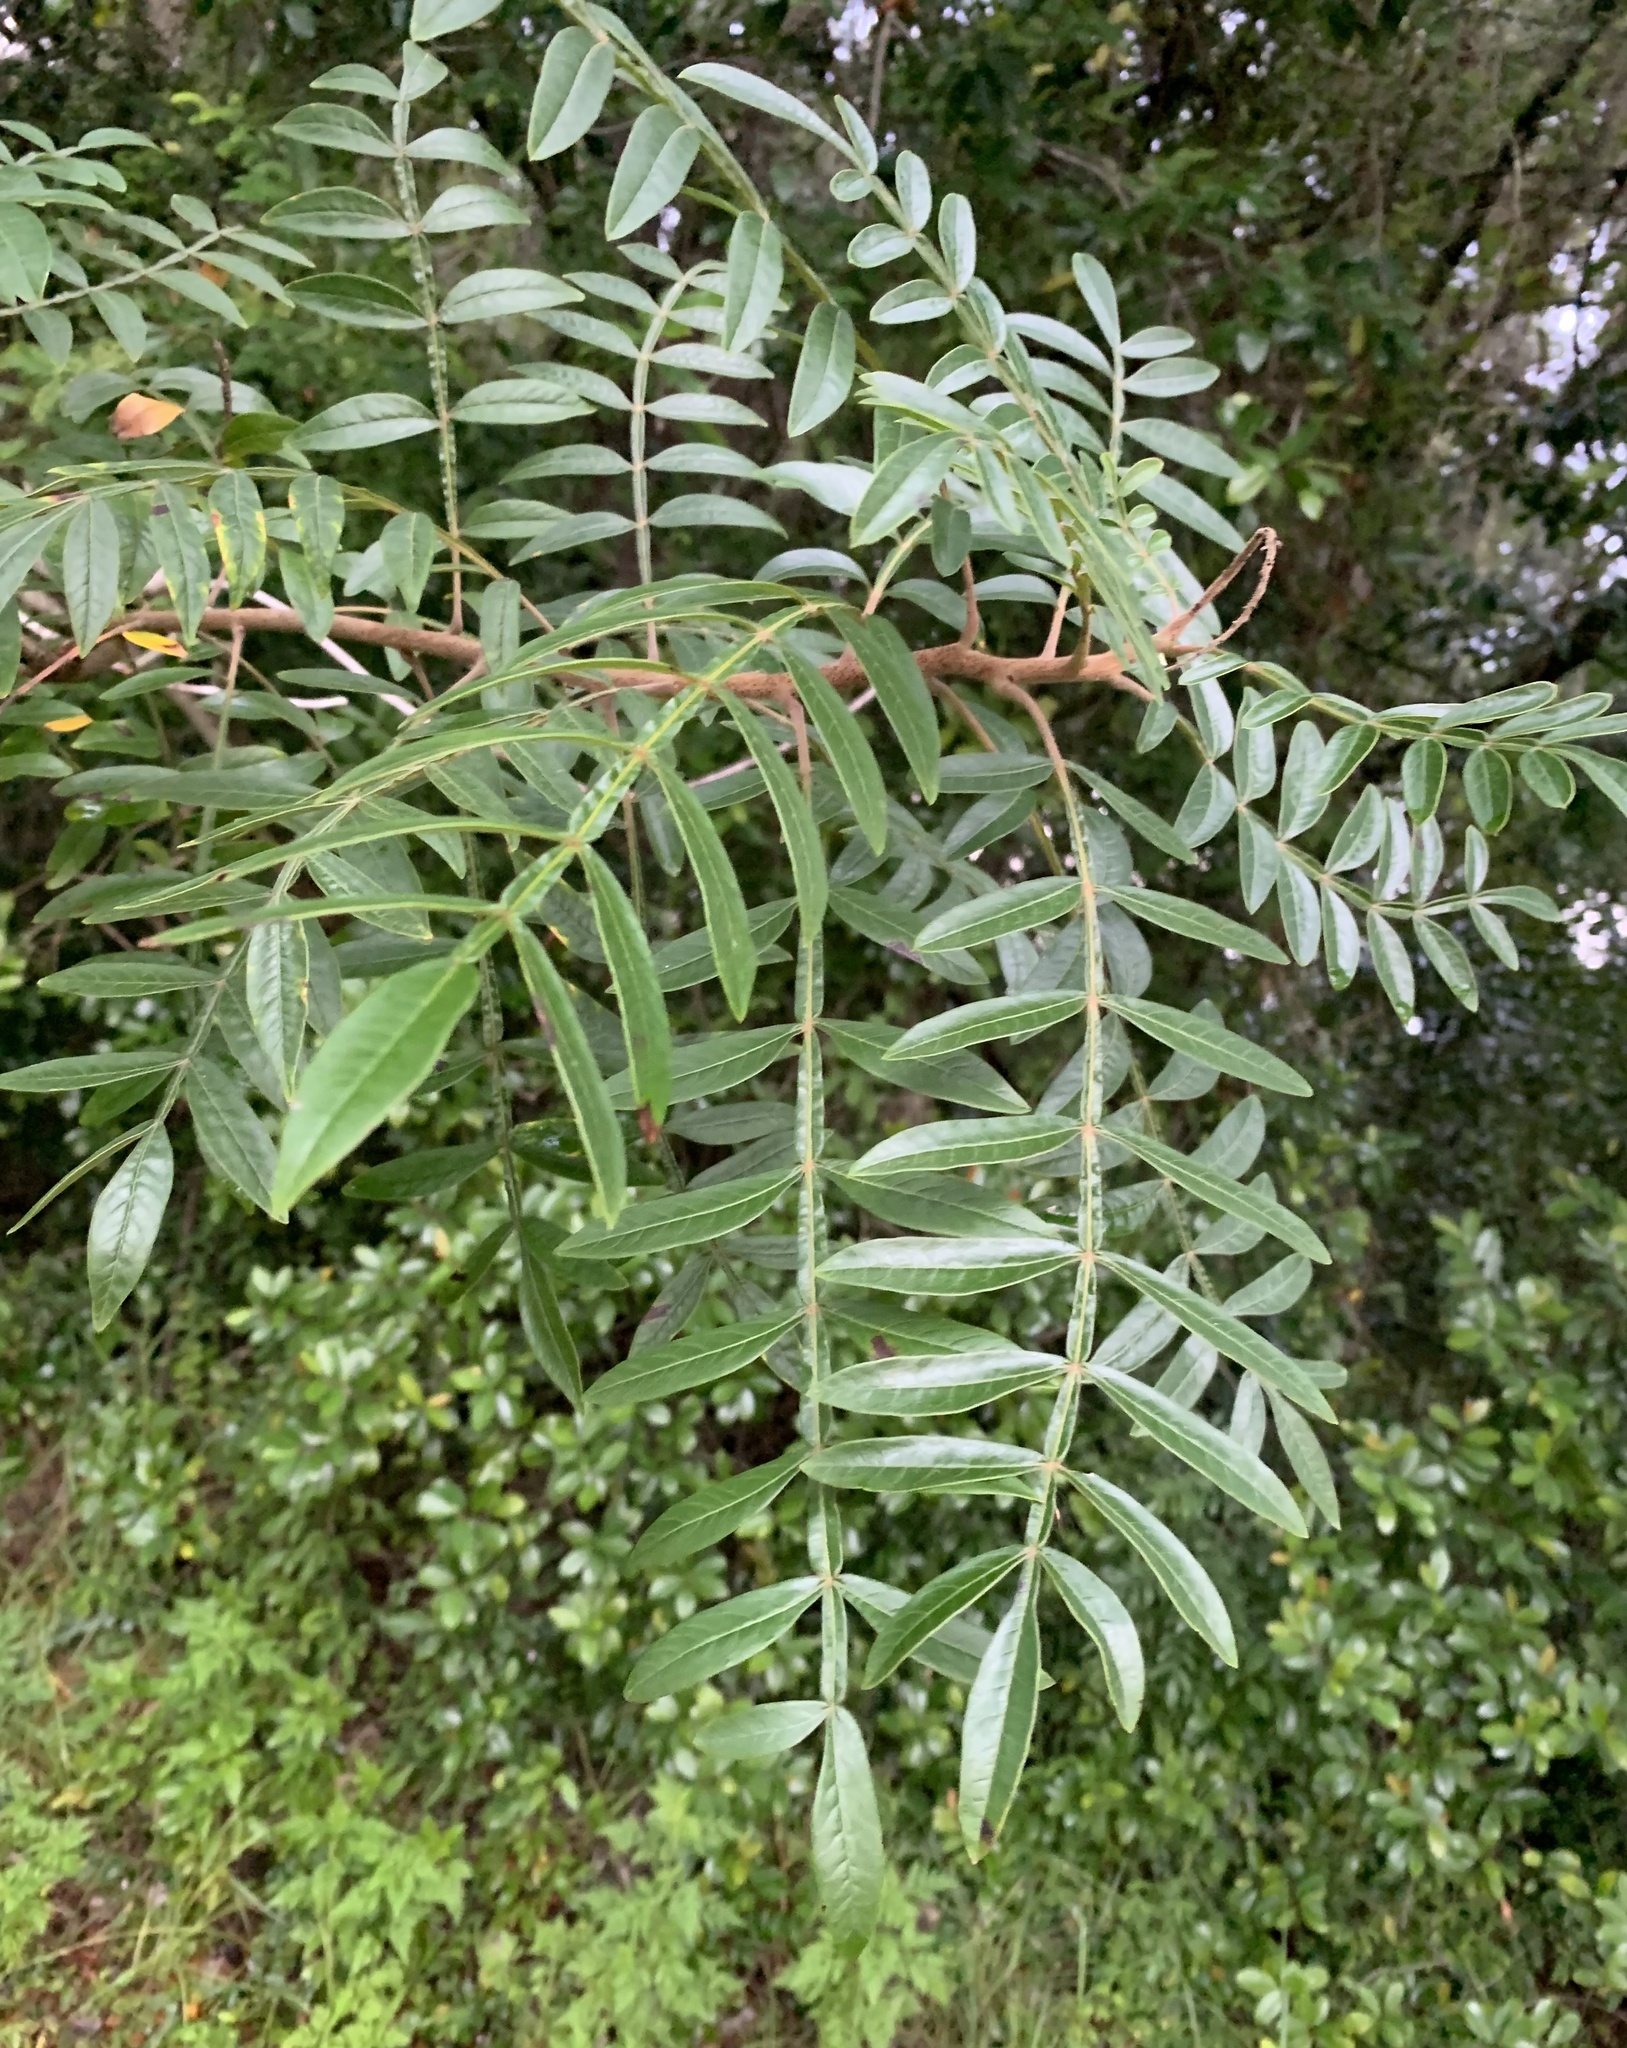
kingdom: Plantae
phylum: Tracheophyta
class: Magnoliopsida
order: Sapindales
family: Anacardiaceae
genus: Rhus
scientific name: Rhus copallina
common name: Shining sumac
